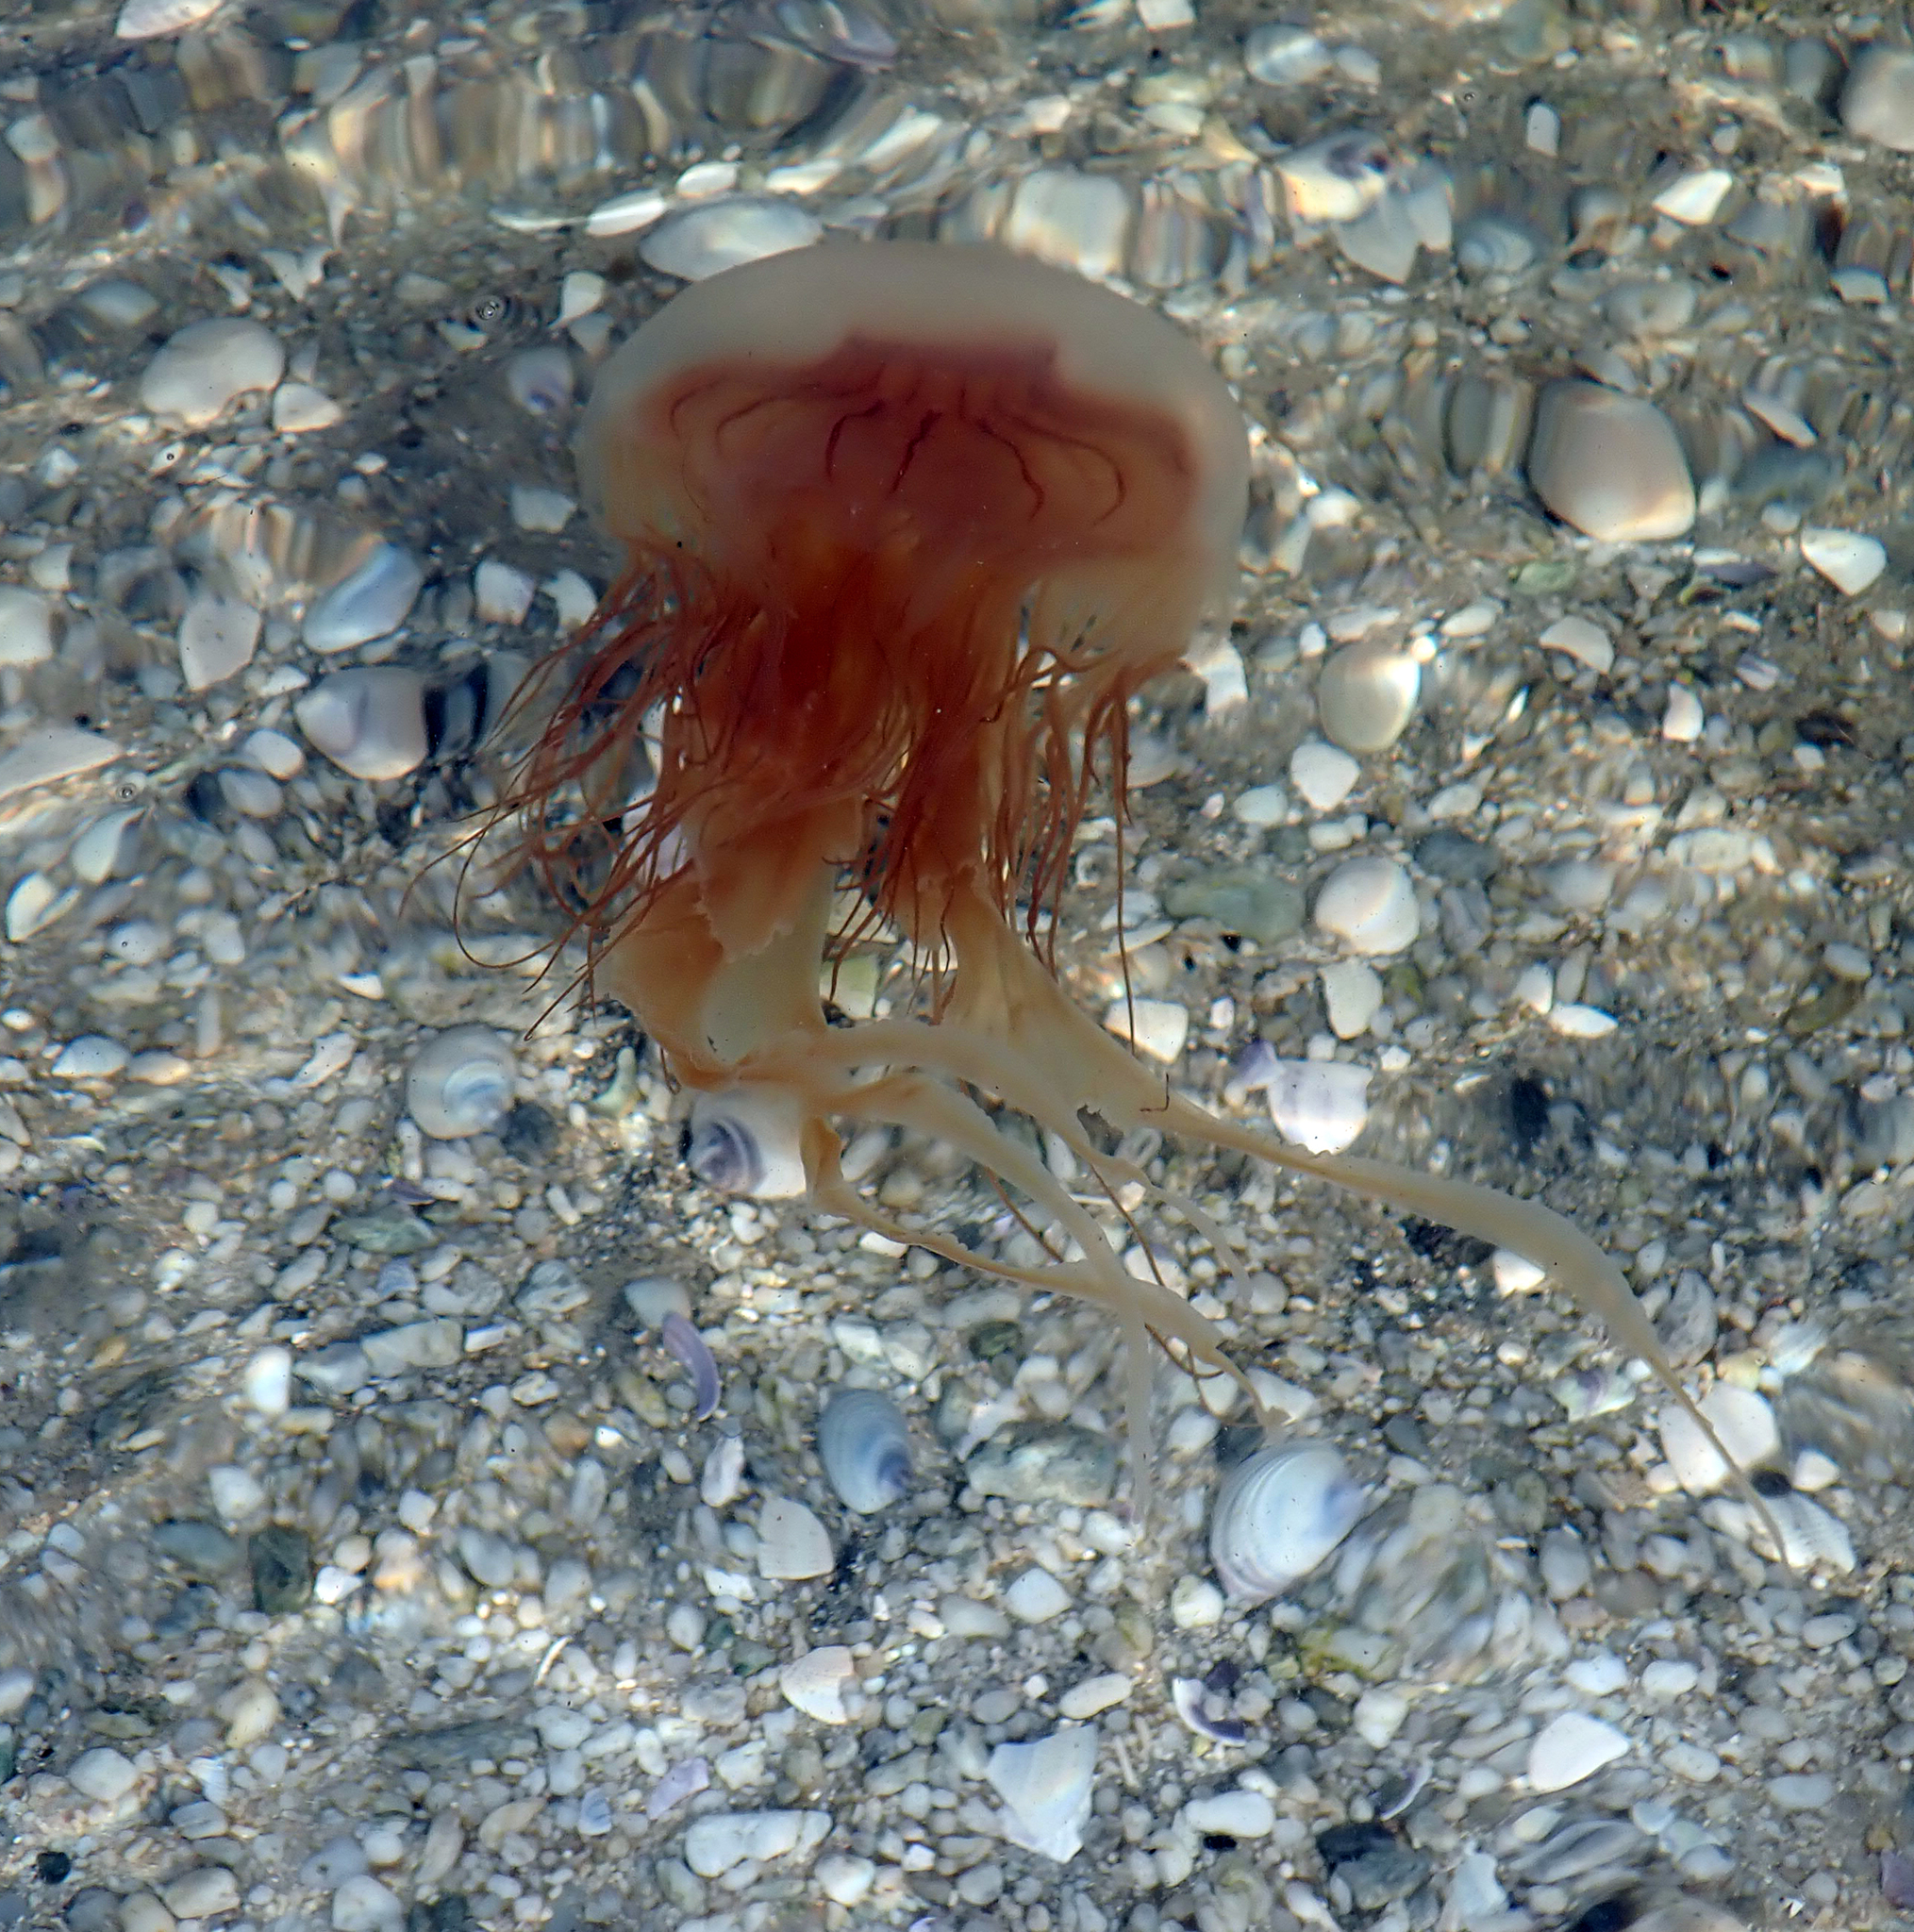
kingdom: Animalia
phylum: Cnidaria
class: Scyphozoa
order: Semaeostomeae
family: Cyaneidae
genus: Desmonema
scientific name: Desmonema gaudichaudi
